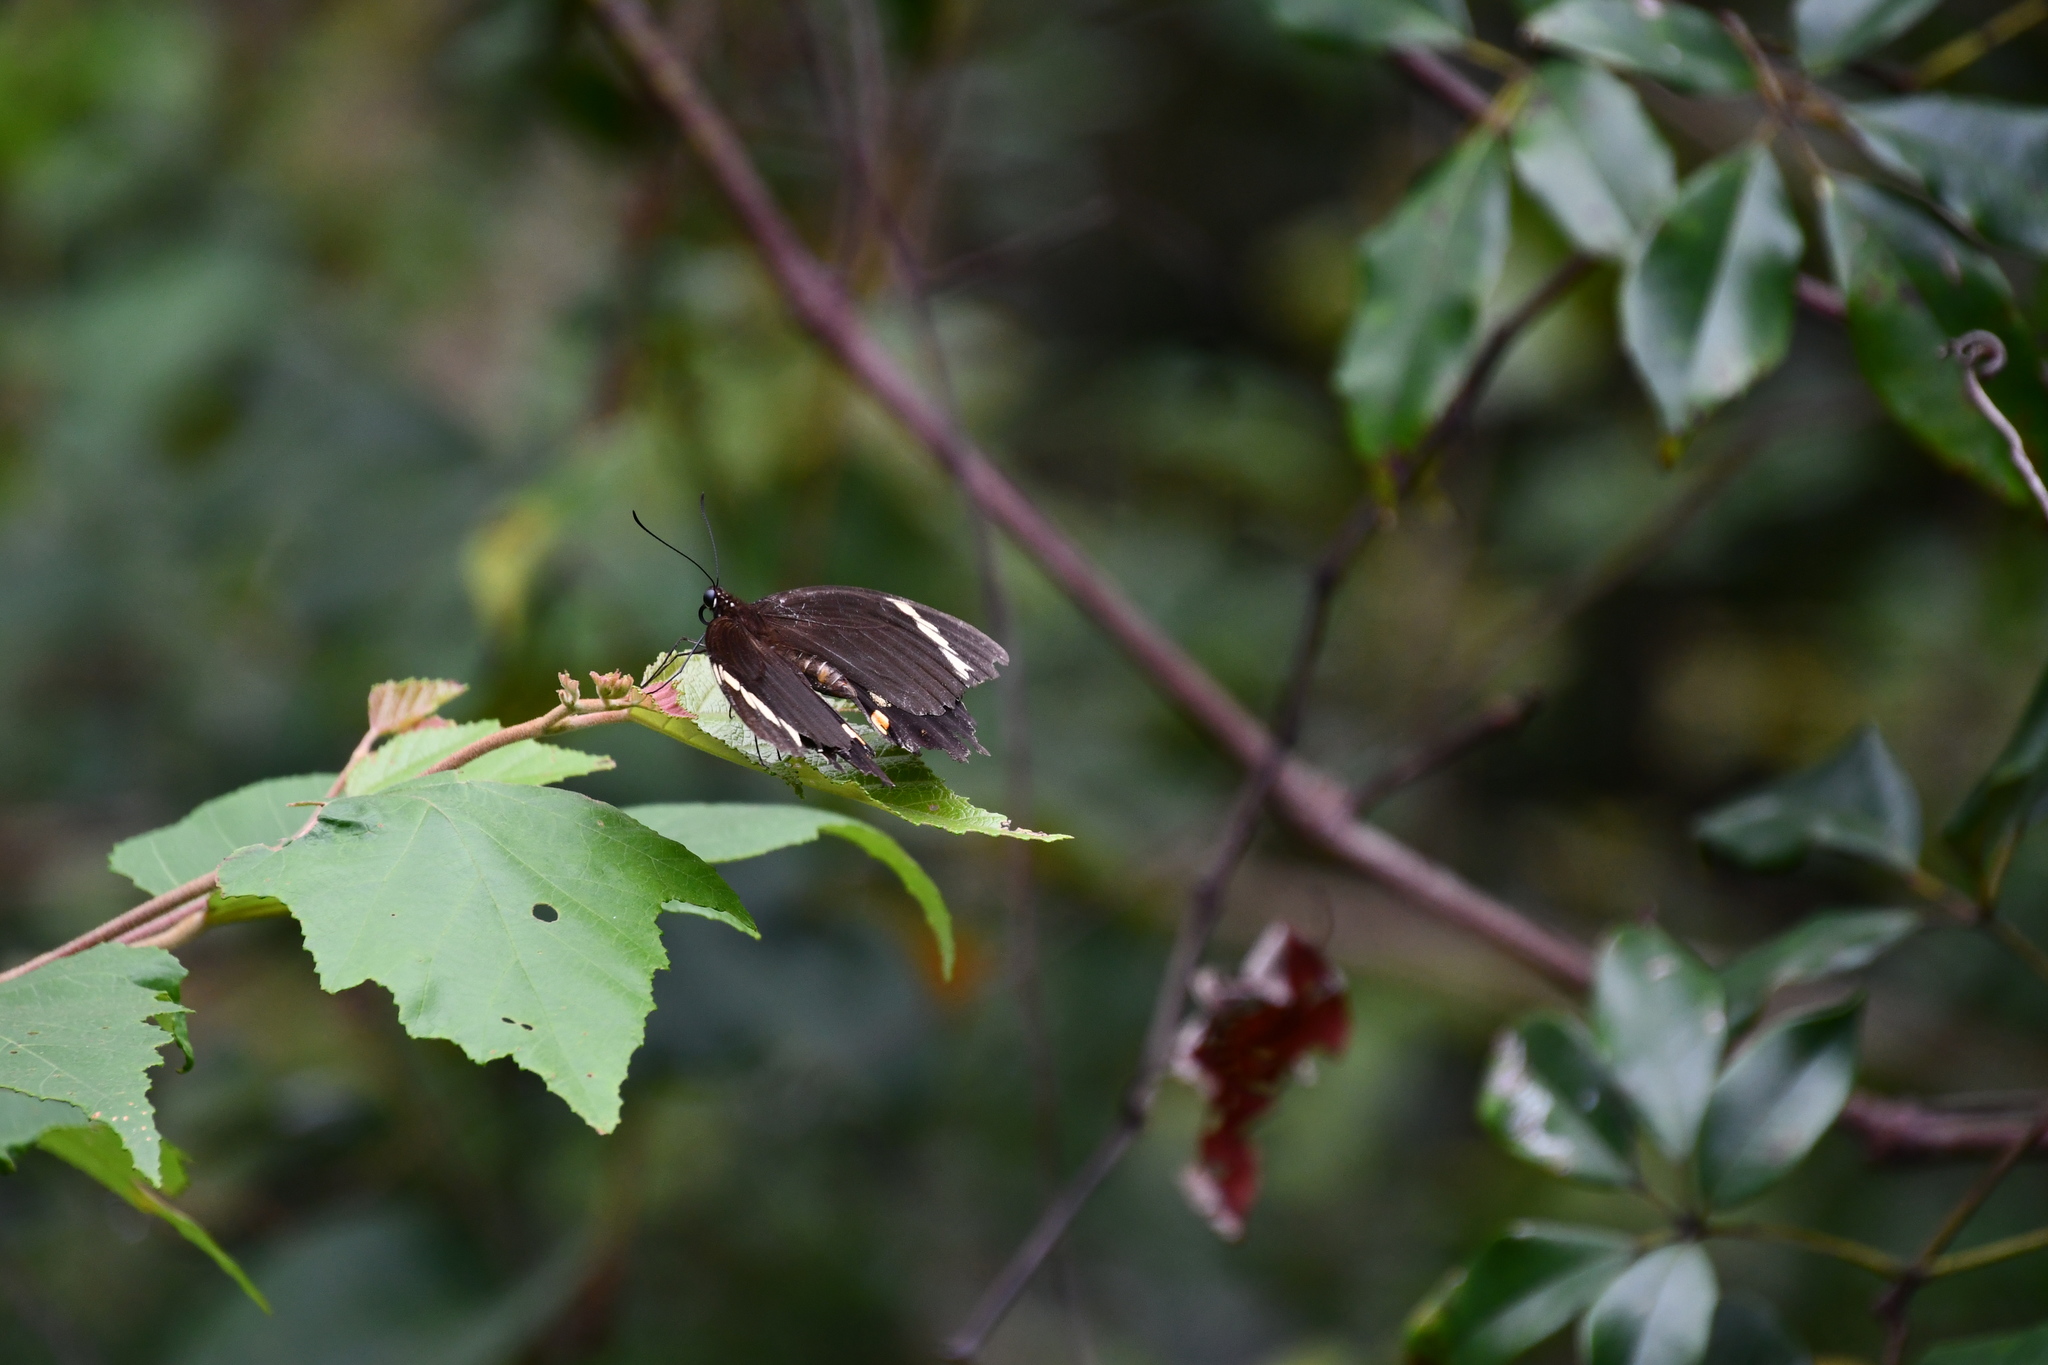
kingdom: Animalia
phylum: Arthropoda
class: Insecta
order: Lepidoptera
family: Papilionidae
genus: Papilio
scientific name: Papilio aegeus
